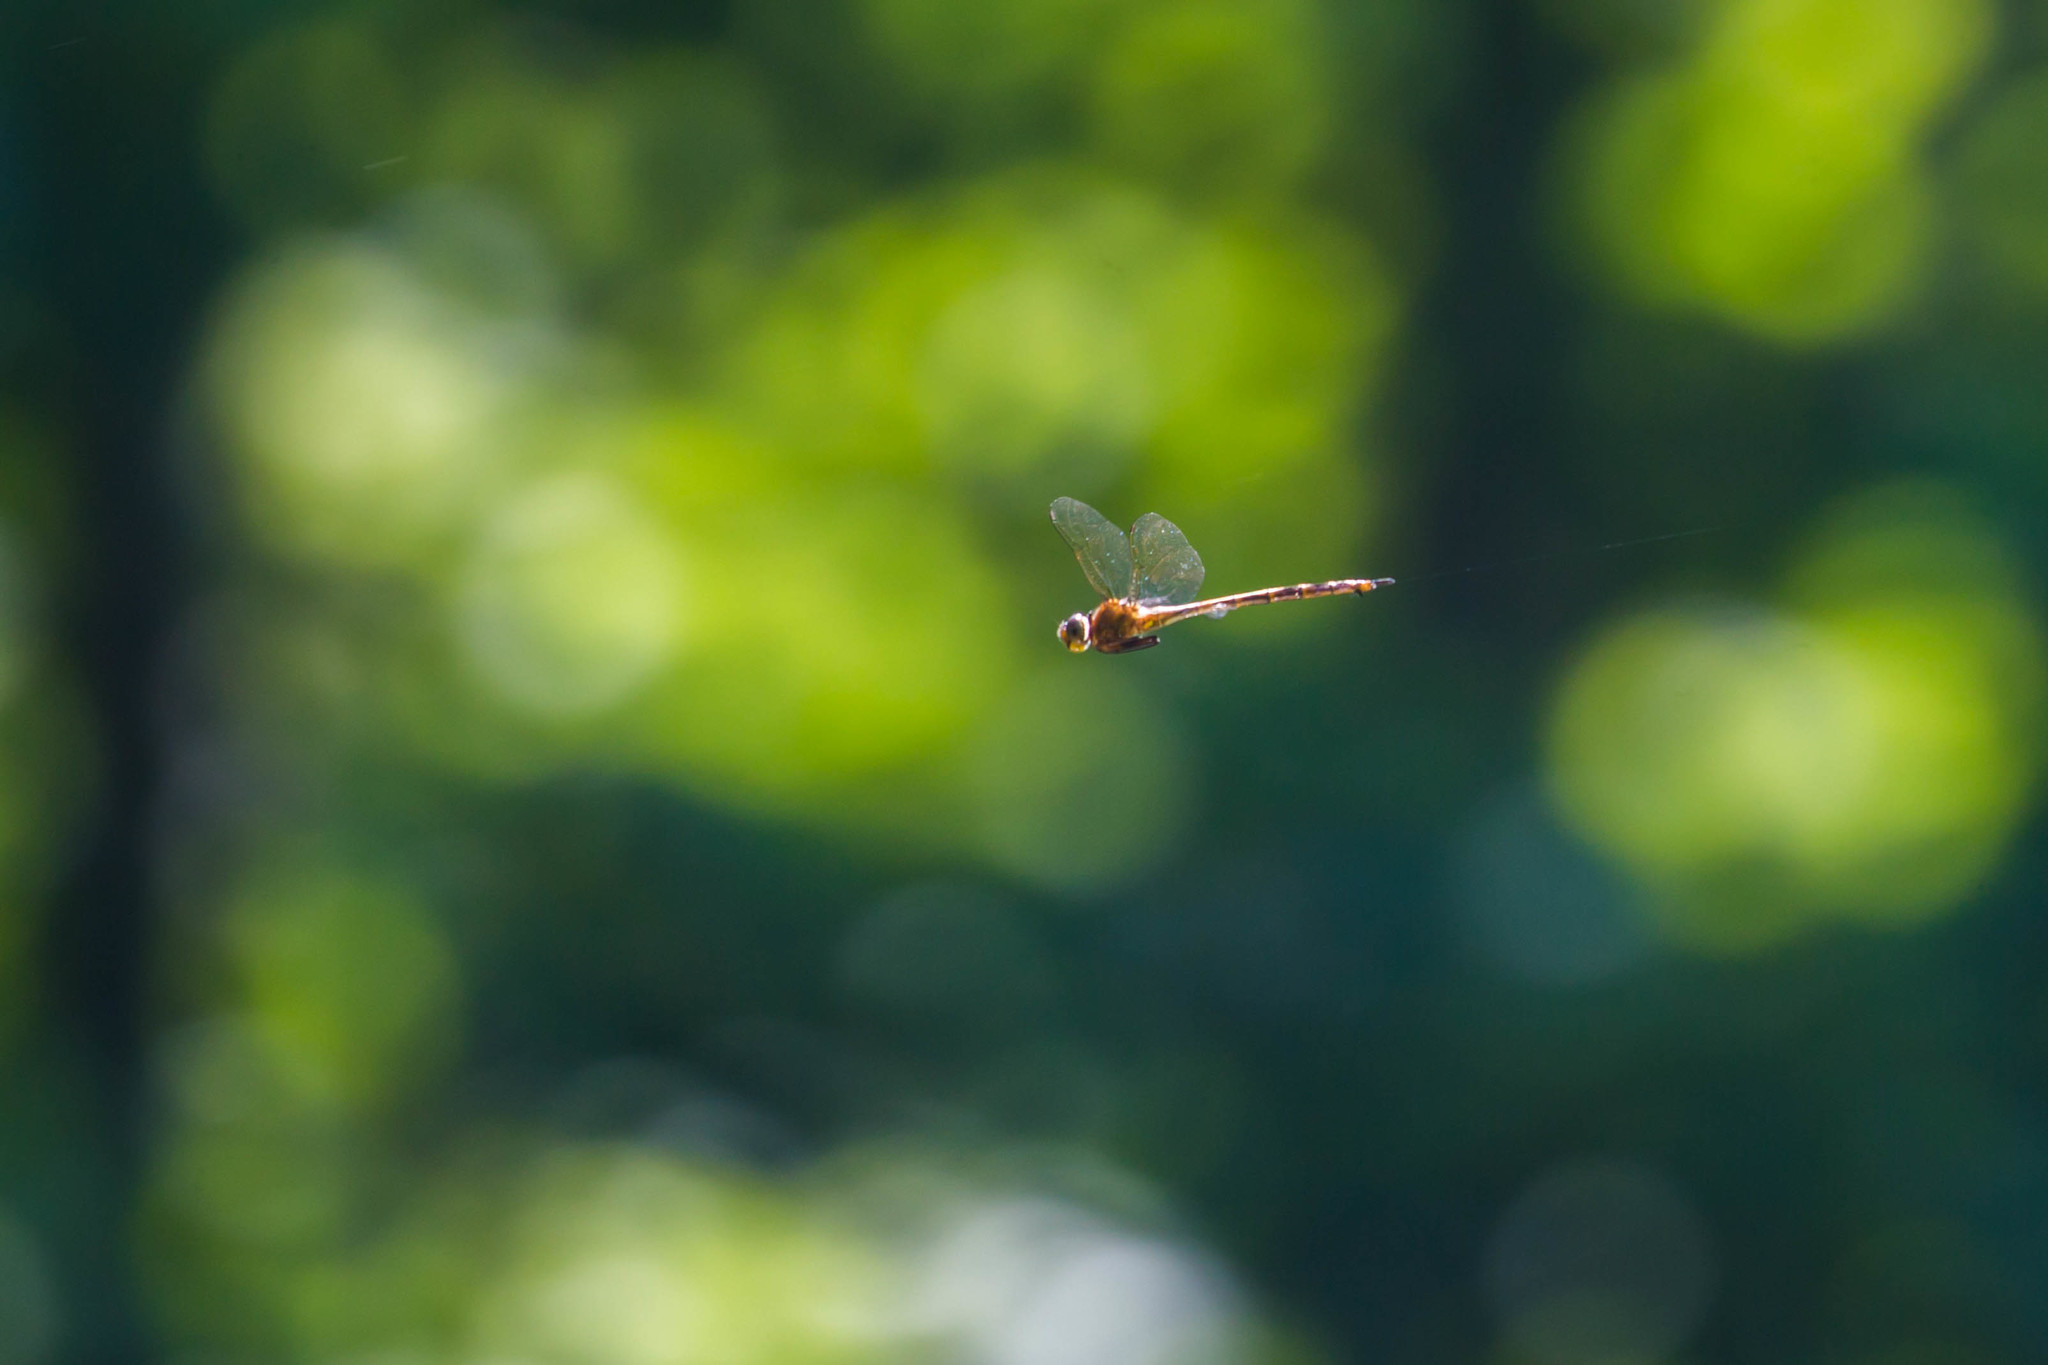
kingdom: Animalia
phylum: Arthropoda
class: Insecta
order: Odonata
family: Corduliidae
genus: Somatochlora
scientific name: Somatochlora linearis
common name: Mocha emerald
